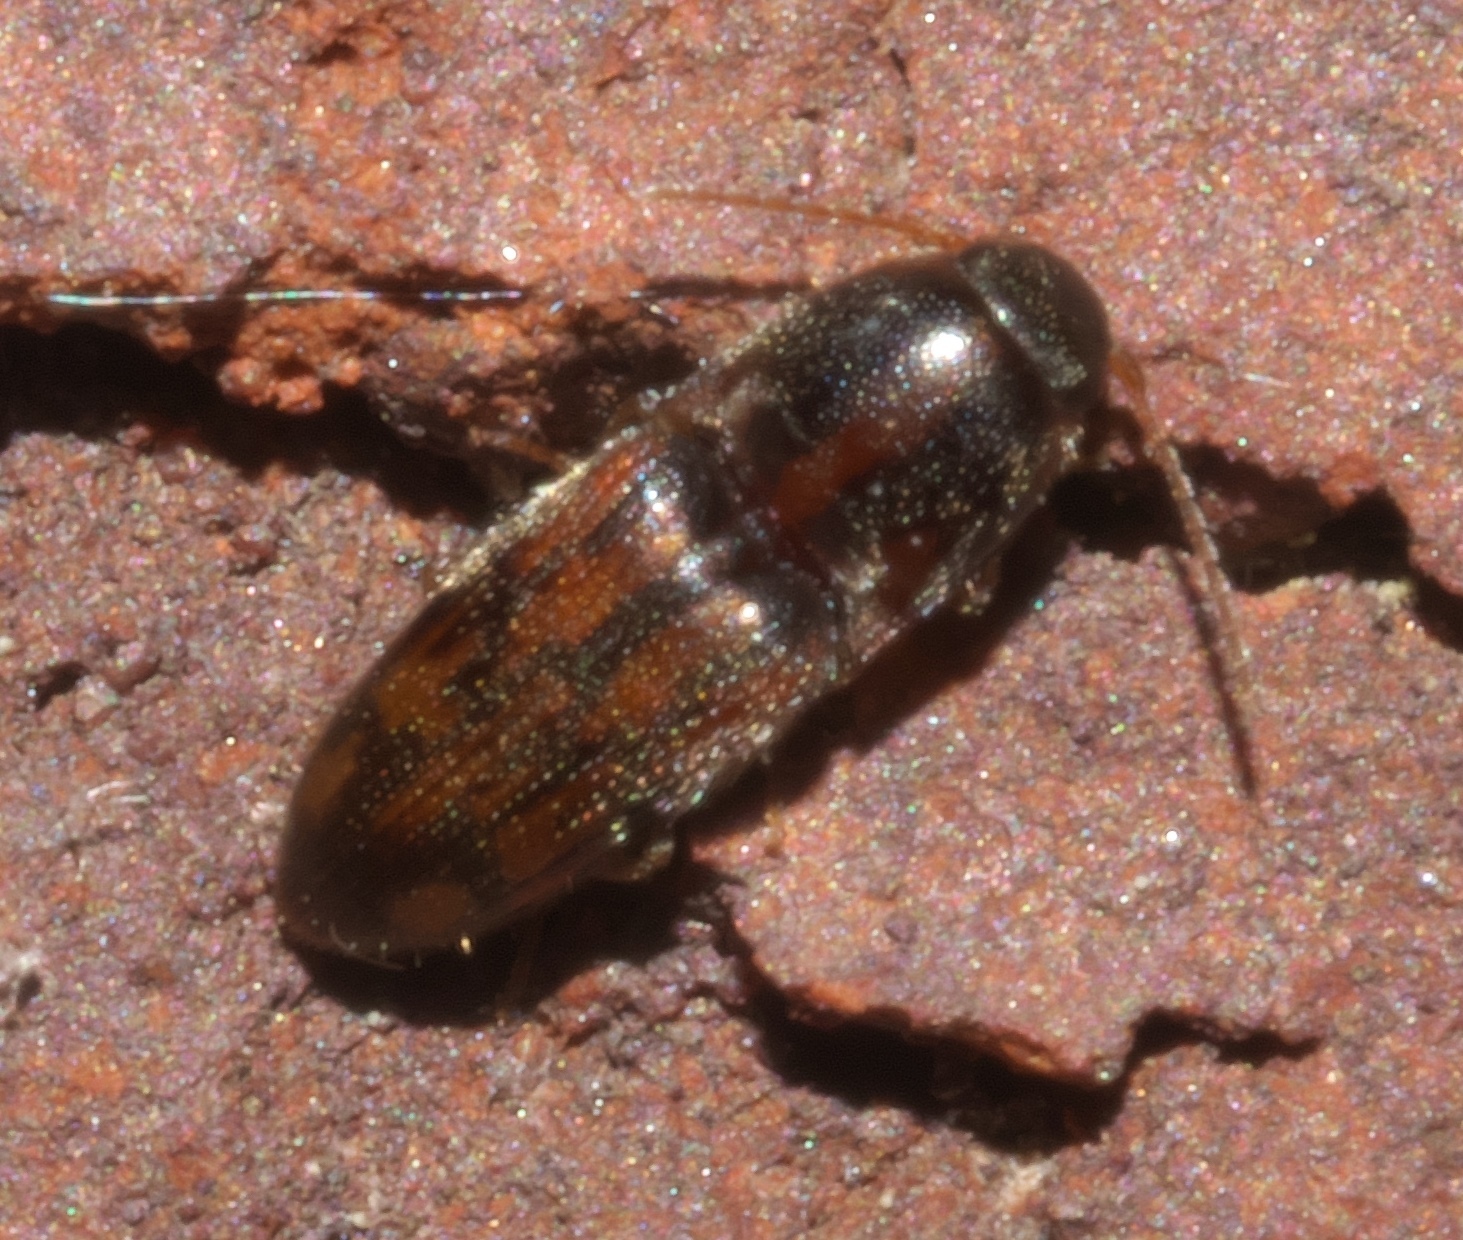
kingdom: Animalia
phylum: Arthropoda
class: Insecta
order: Coleoptera
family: Elateridae
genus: Monocrepidius
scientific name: Monocrepidius bellus
